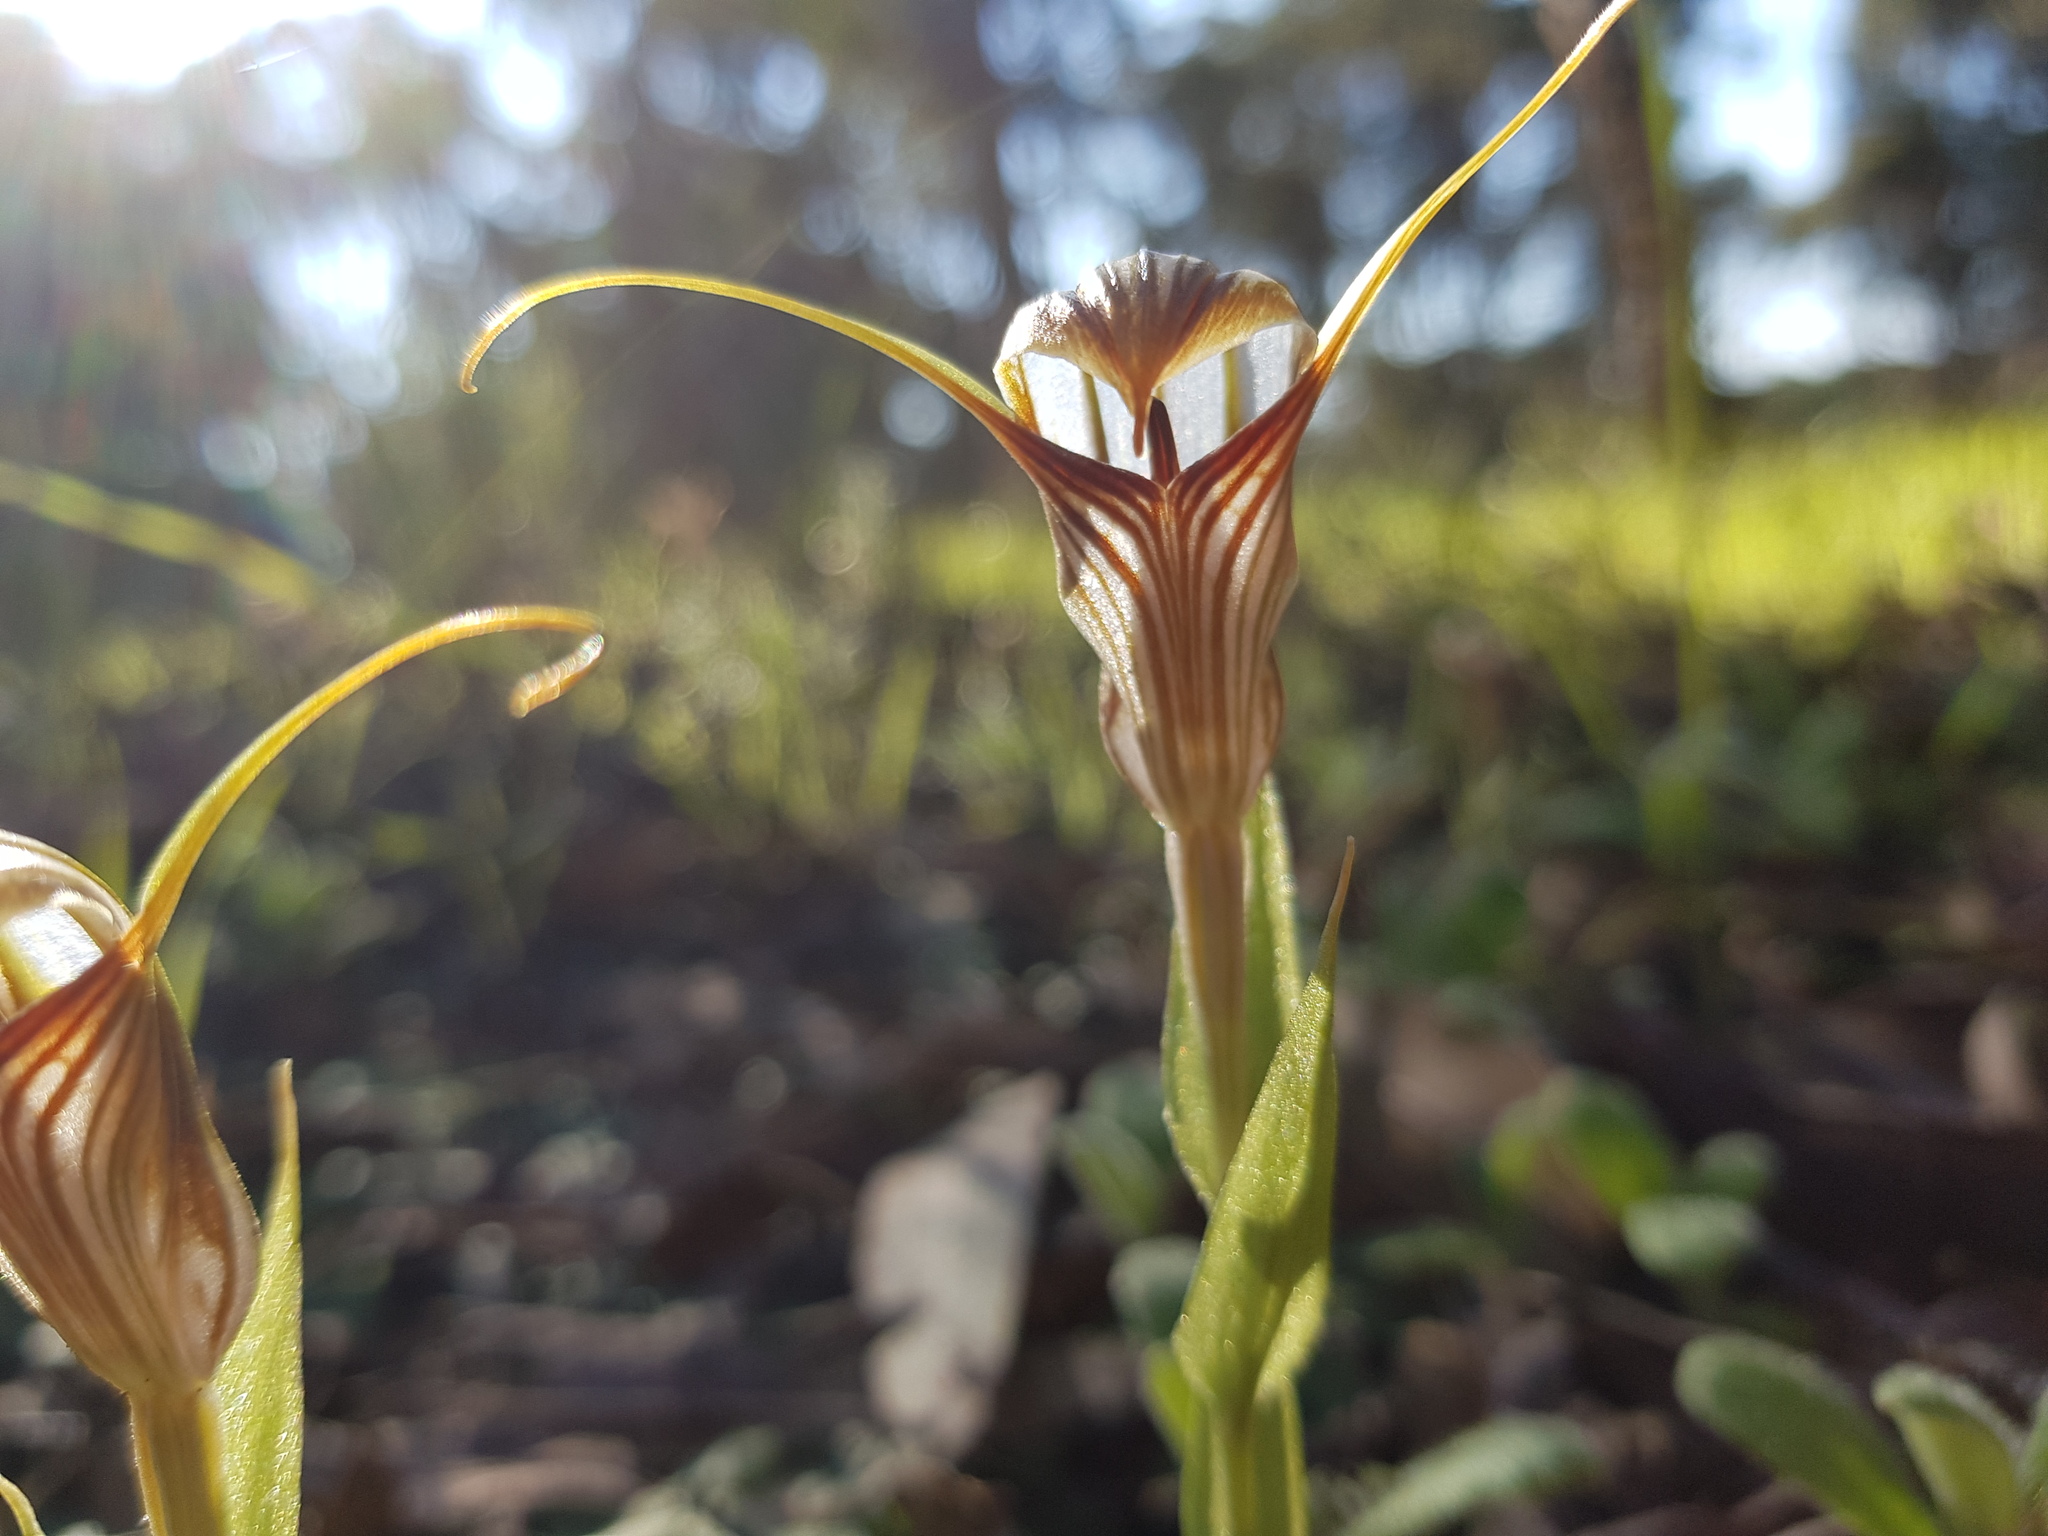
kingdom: Plantae
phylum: Tracheophyta
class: Liliopsida
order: Asparagales
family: Orchidaceae
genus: Pterostylis
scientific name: Pterostylis hamiltonii
